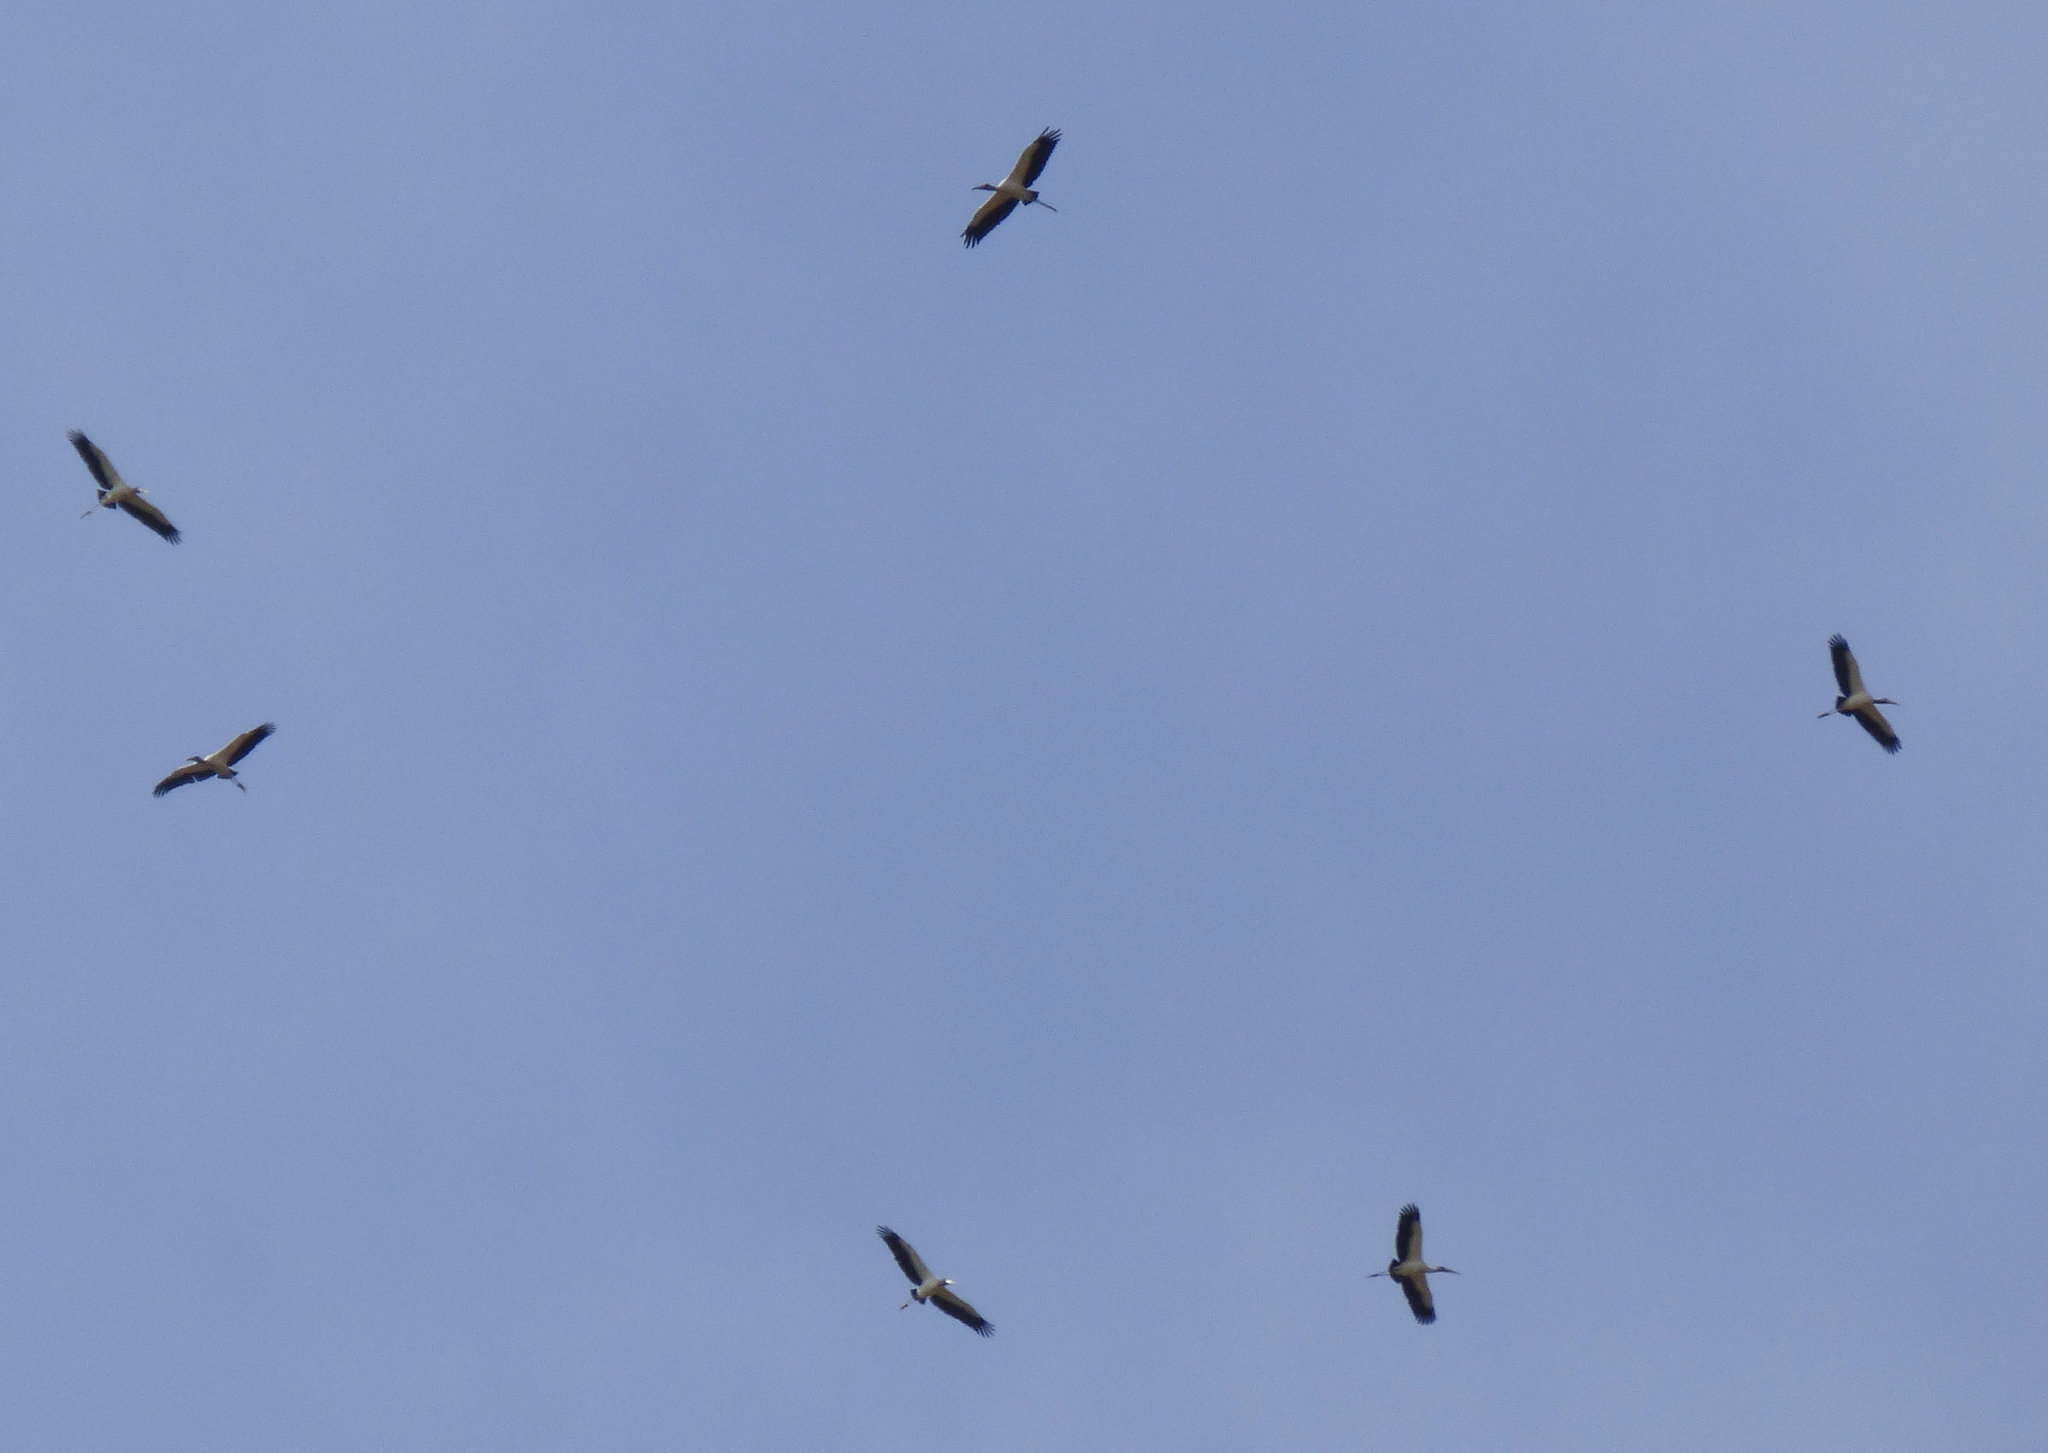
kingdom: Animalia
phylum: Chordata
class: Aves
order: Ciconiiformes
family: Ciconiidae
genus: Mycteria
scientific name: Mycteria americana
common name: Wood stork
